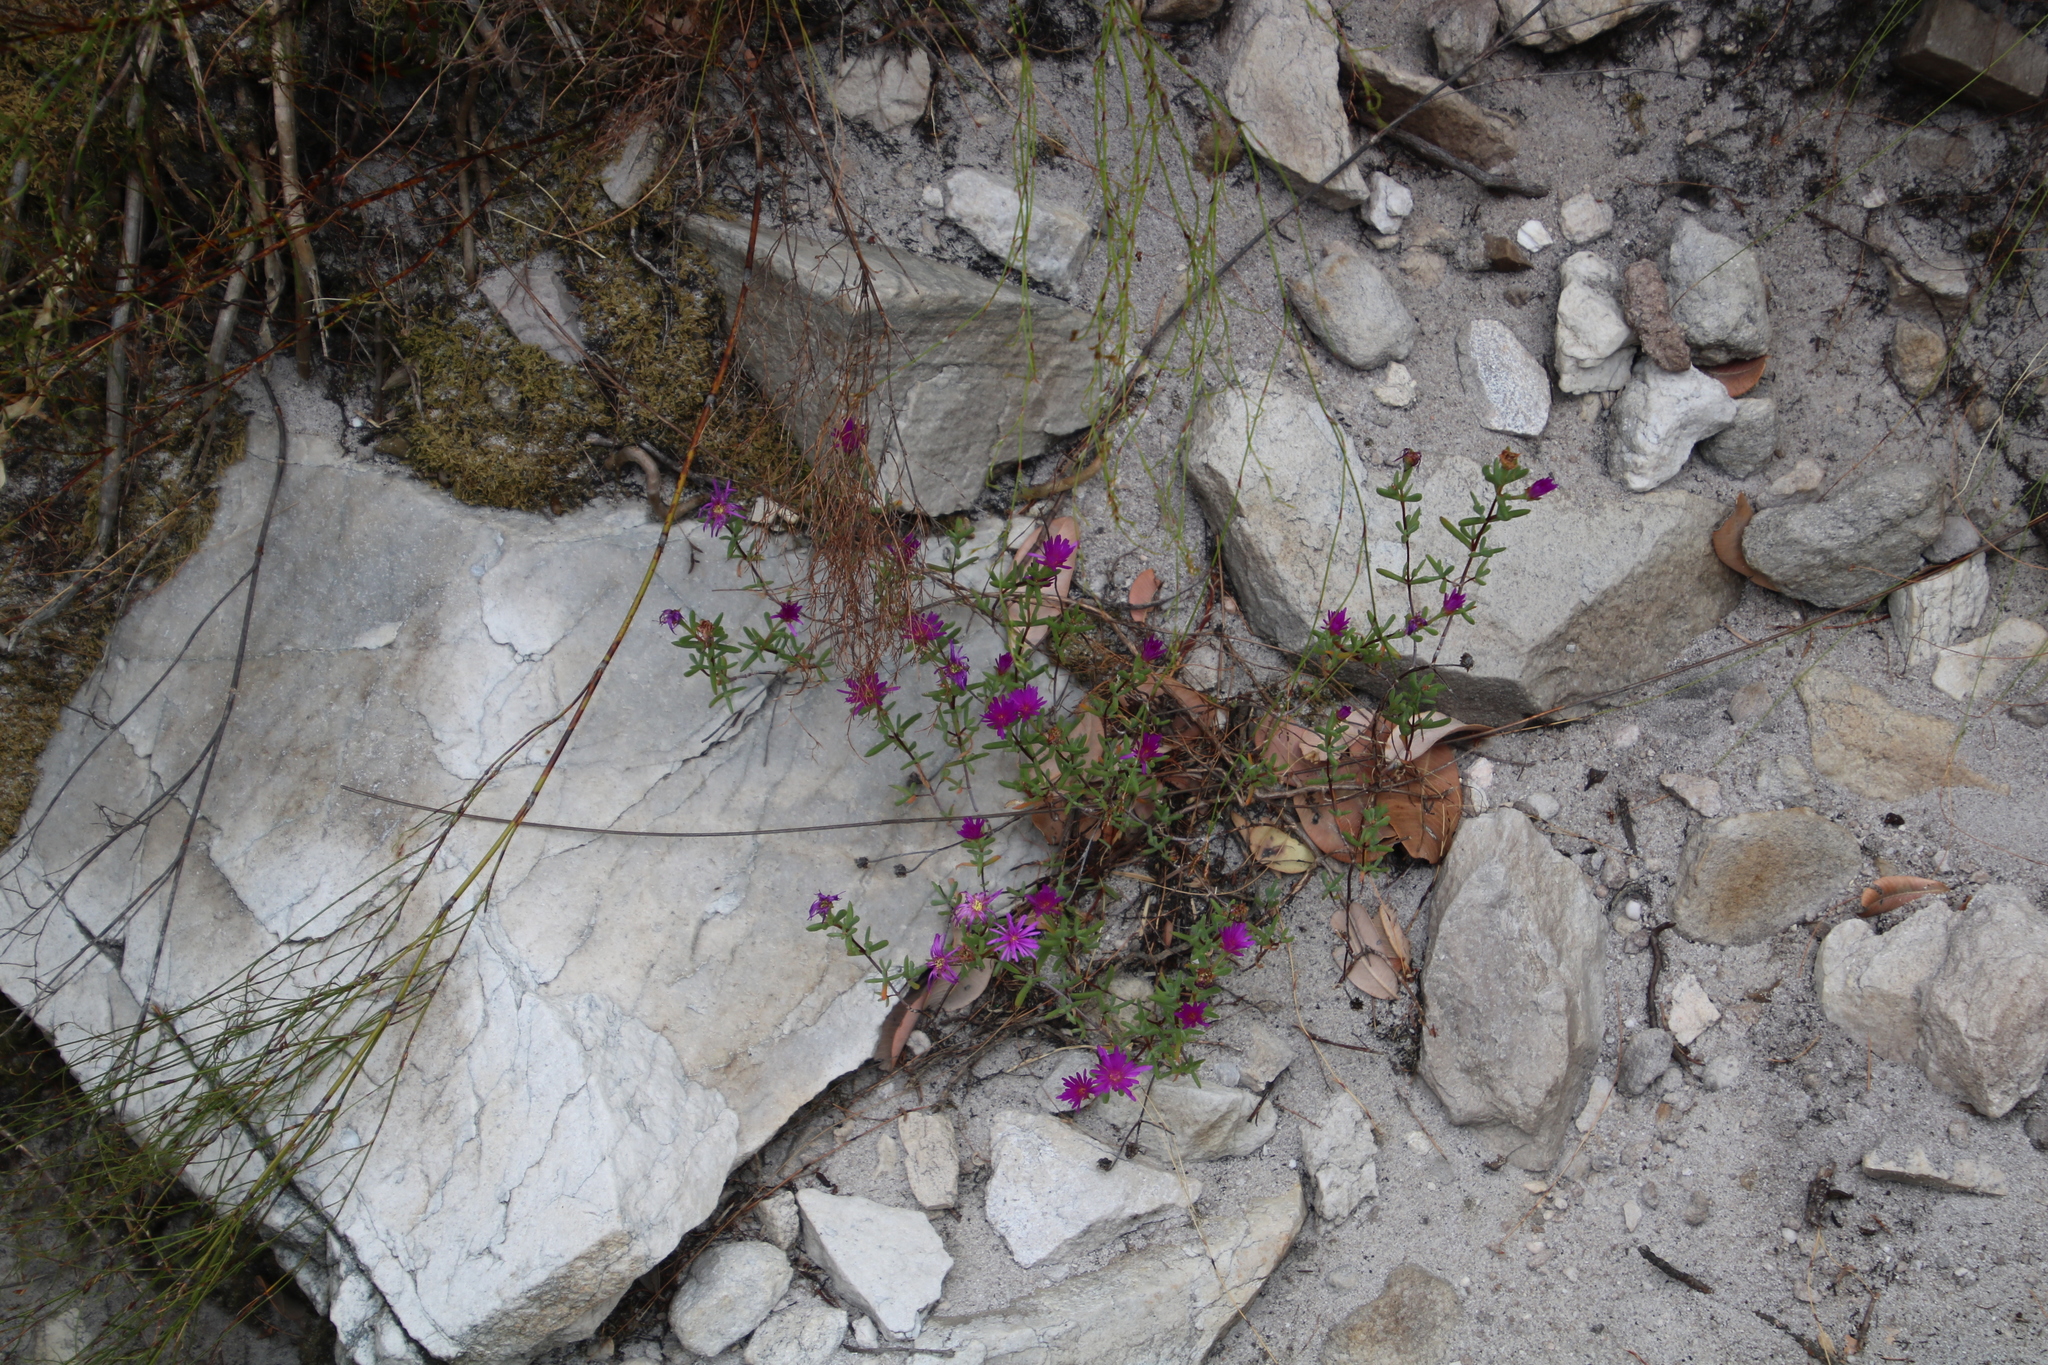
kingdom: Plantae
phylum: Tracheophyta
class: Magnoliopsida
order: Caryophyllales
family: Aizoaceae
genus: Lampranthus
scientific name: Lampranthus glomeratus
